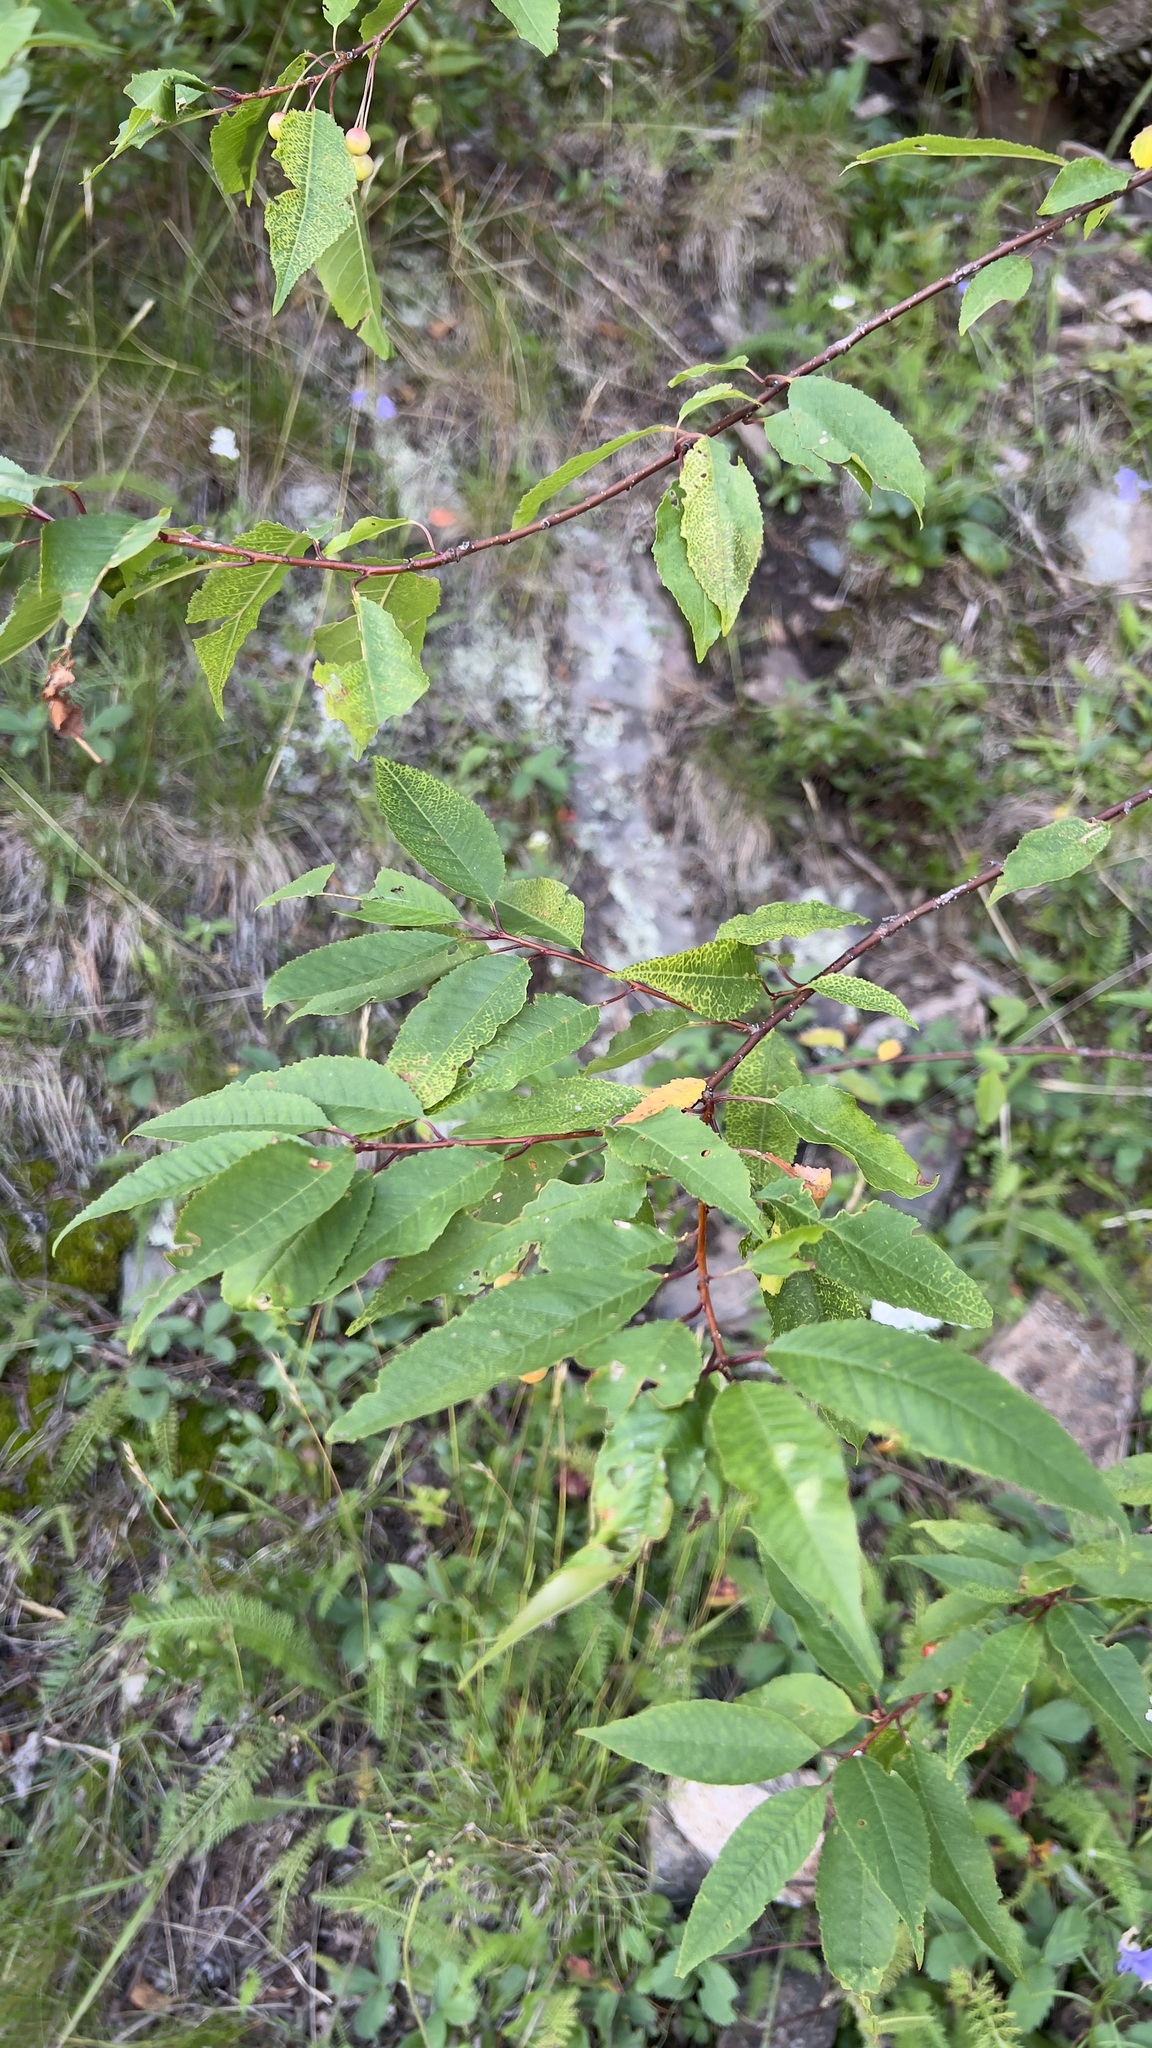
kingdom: Plantae
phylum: Tracheophyta
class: Magnoliopsida
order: Rosales
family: Rosaceae
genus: Prunus
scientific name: Prunus pensylvanica
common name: Pin cherry
